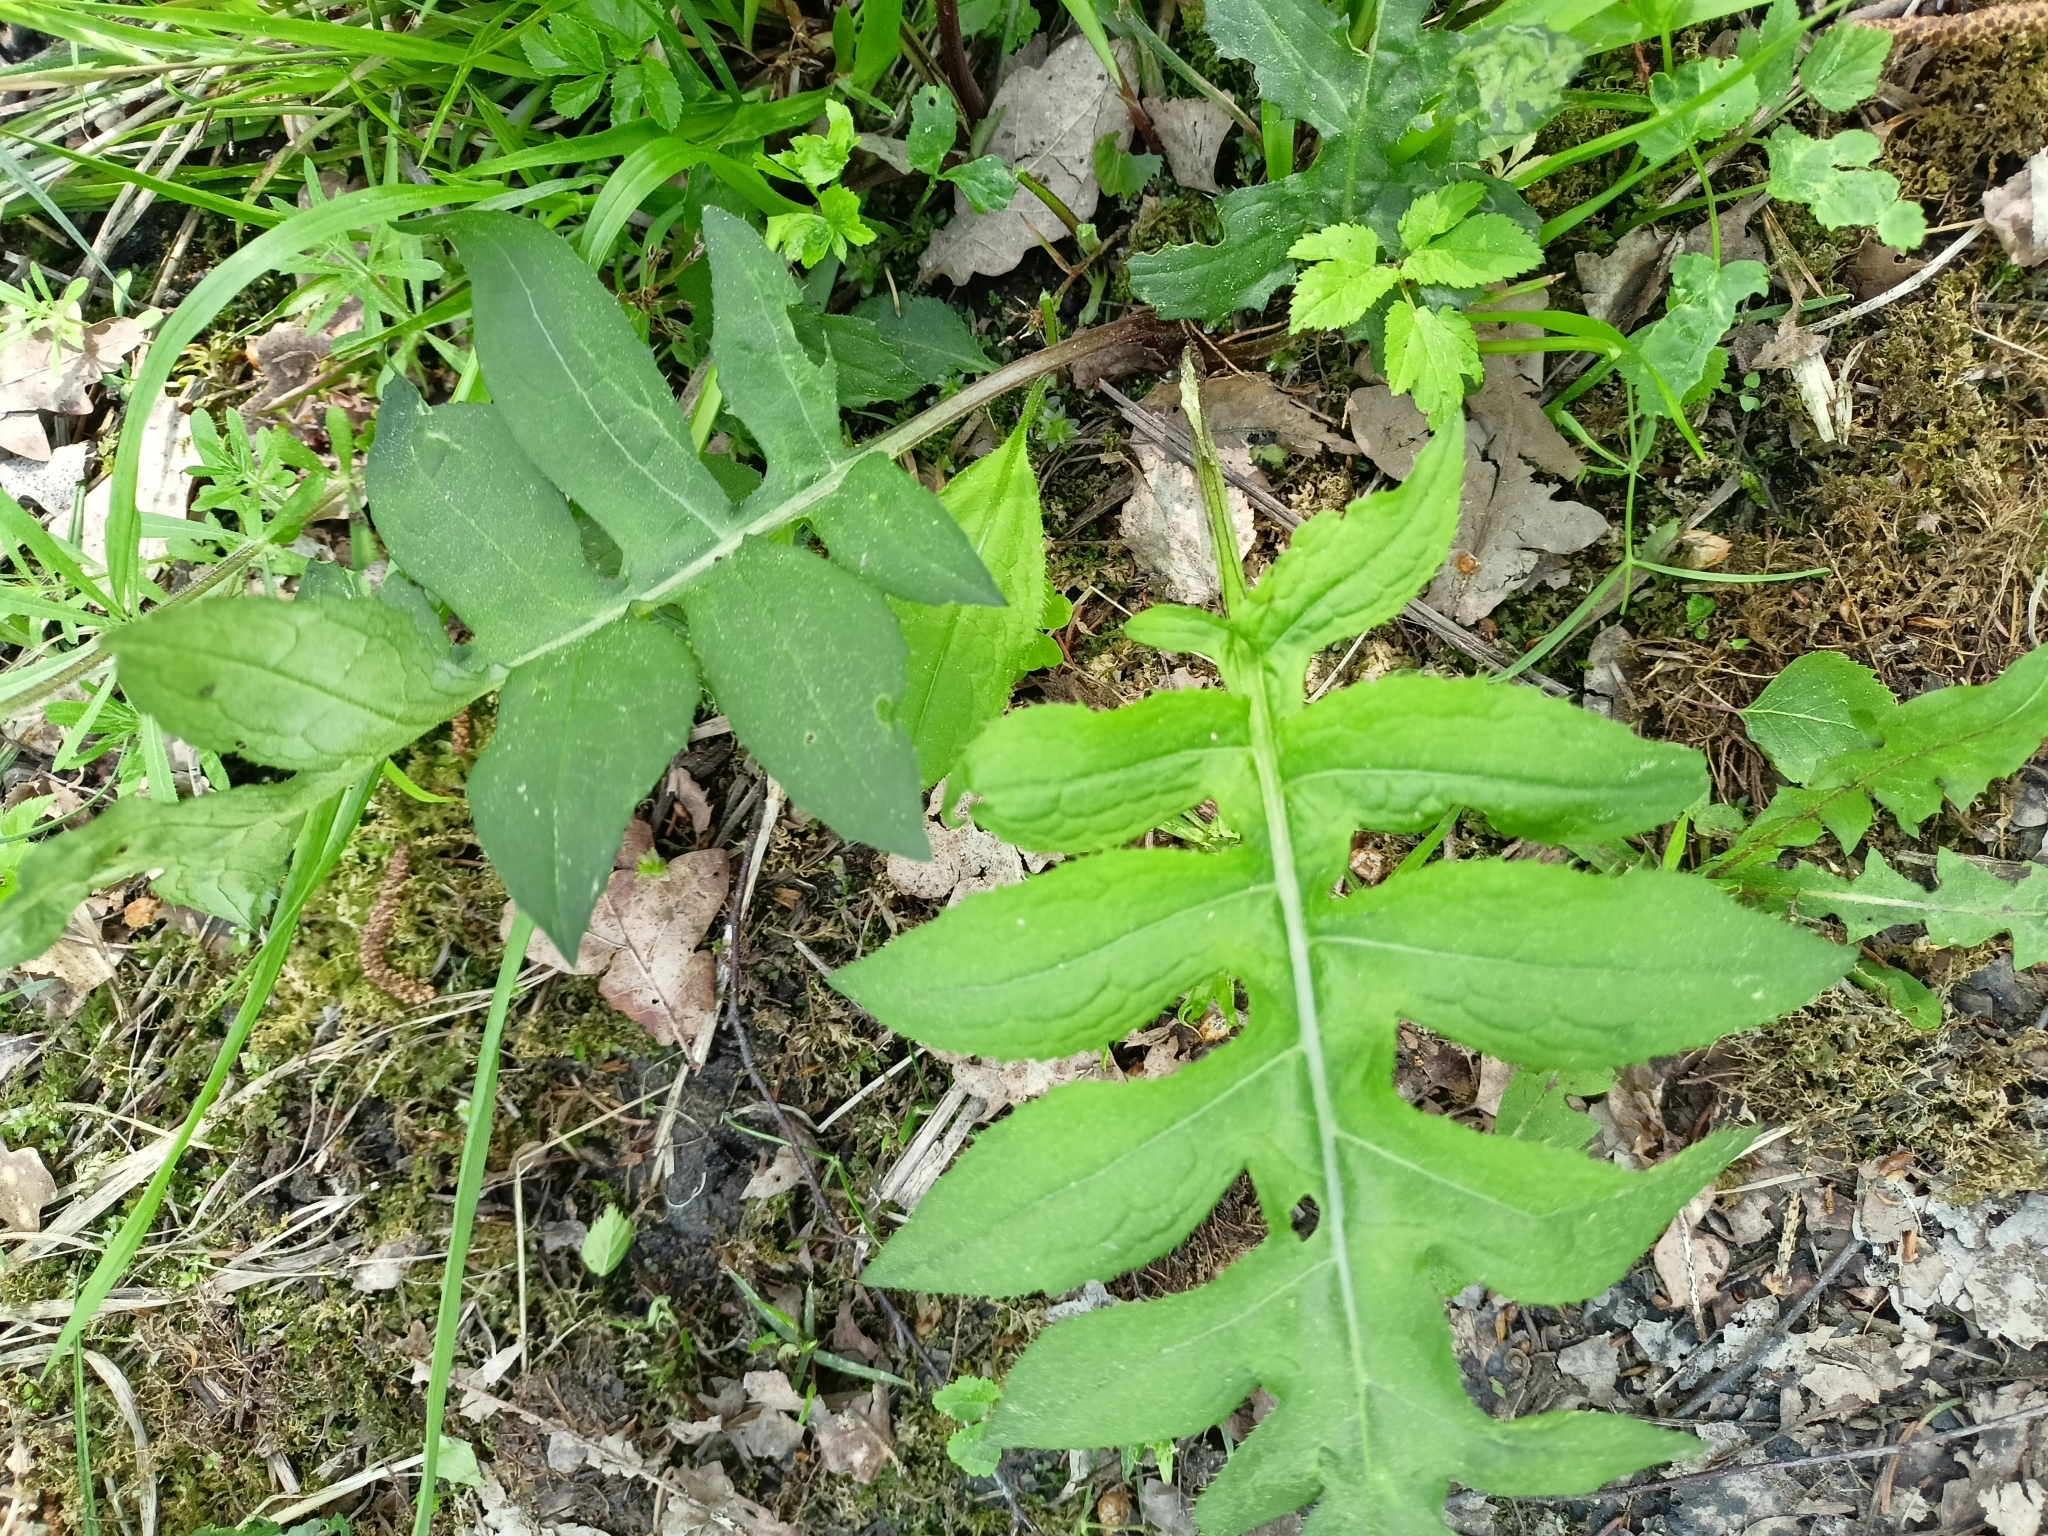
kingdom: Plantae
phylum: Tracheophyta
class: Magnoliopsida
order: Asterales
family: Asteraceae
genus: Cirsium
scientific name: Cirsium oleraceum
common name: Cabbage thistle
